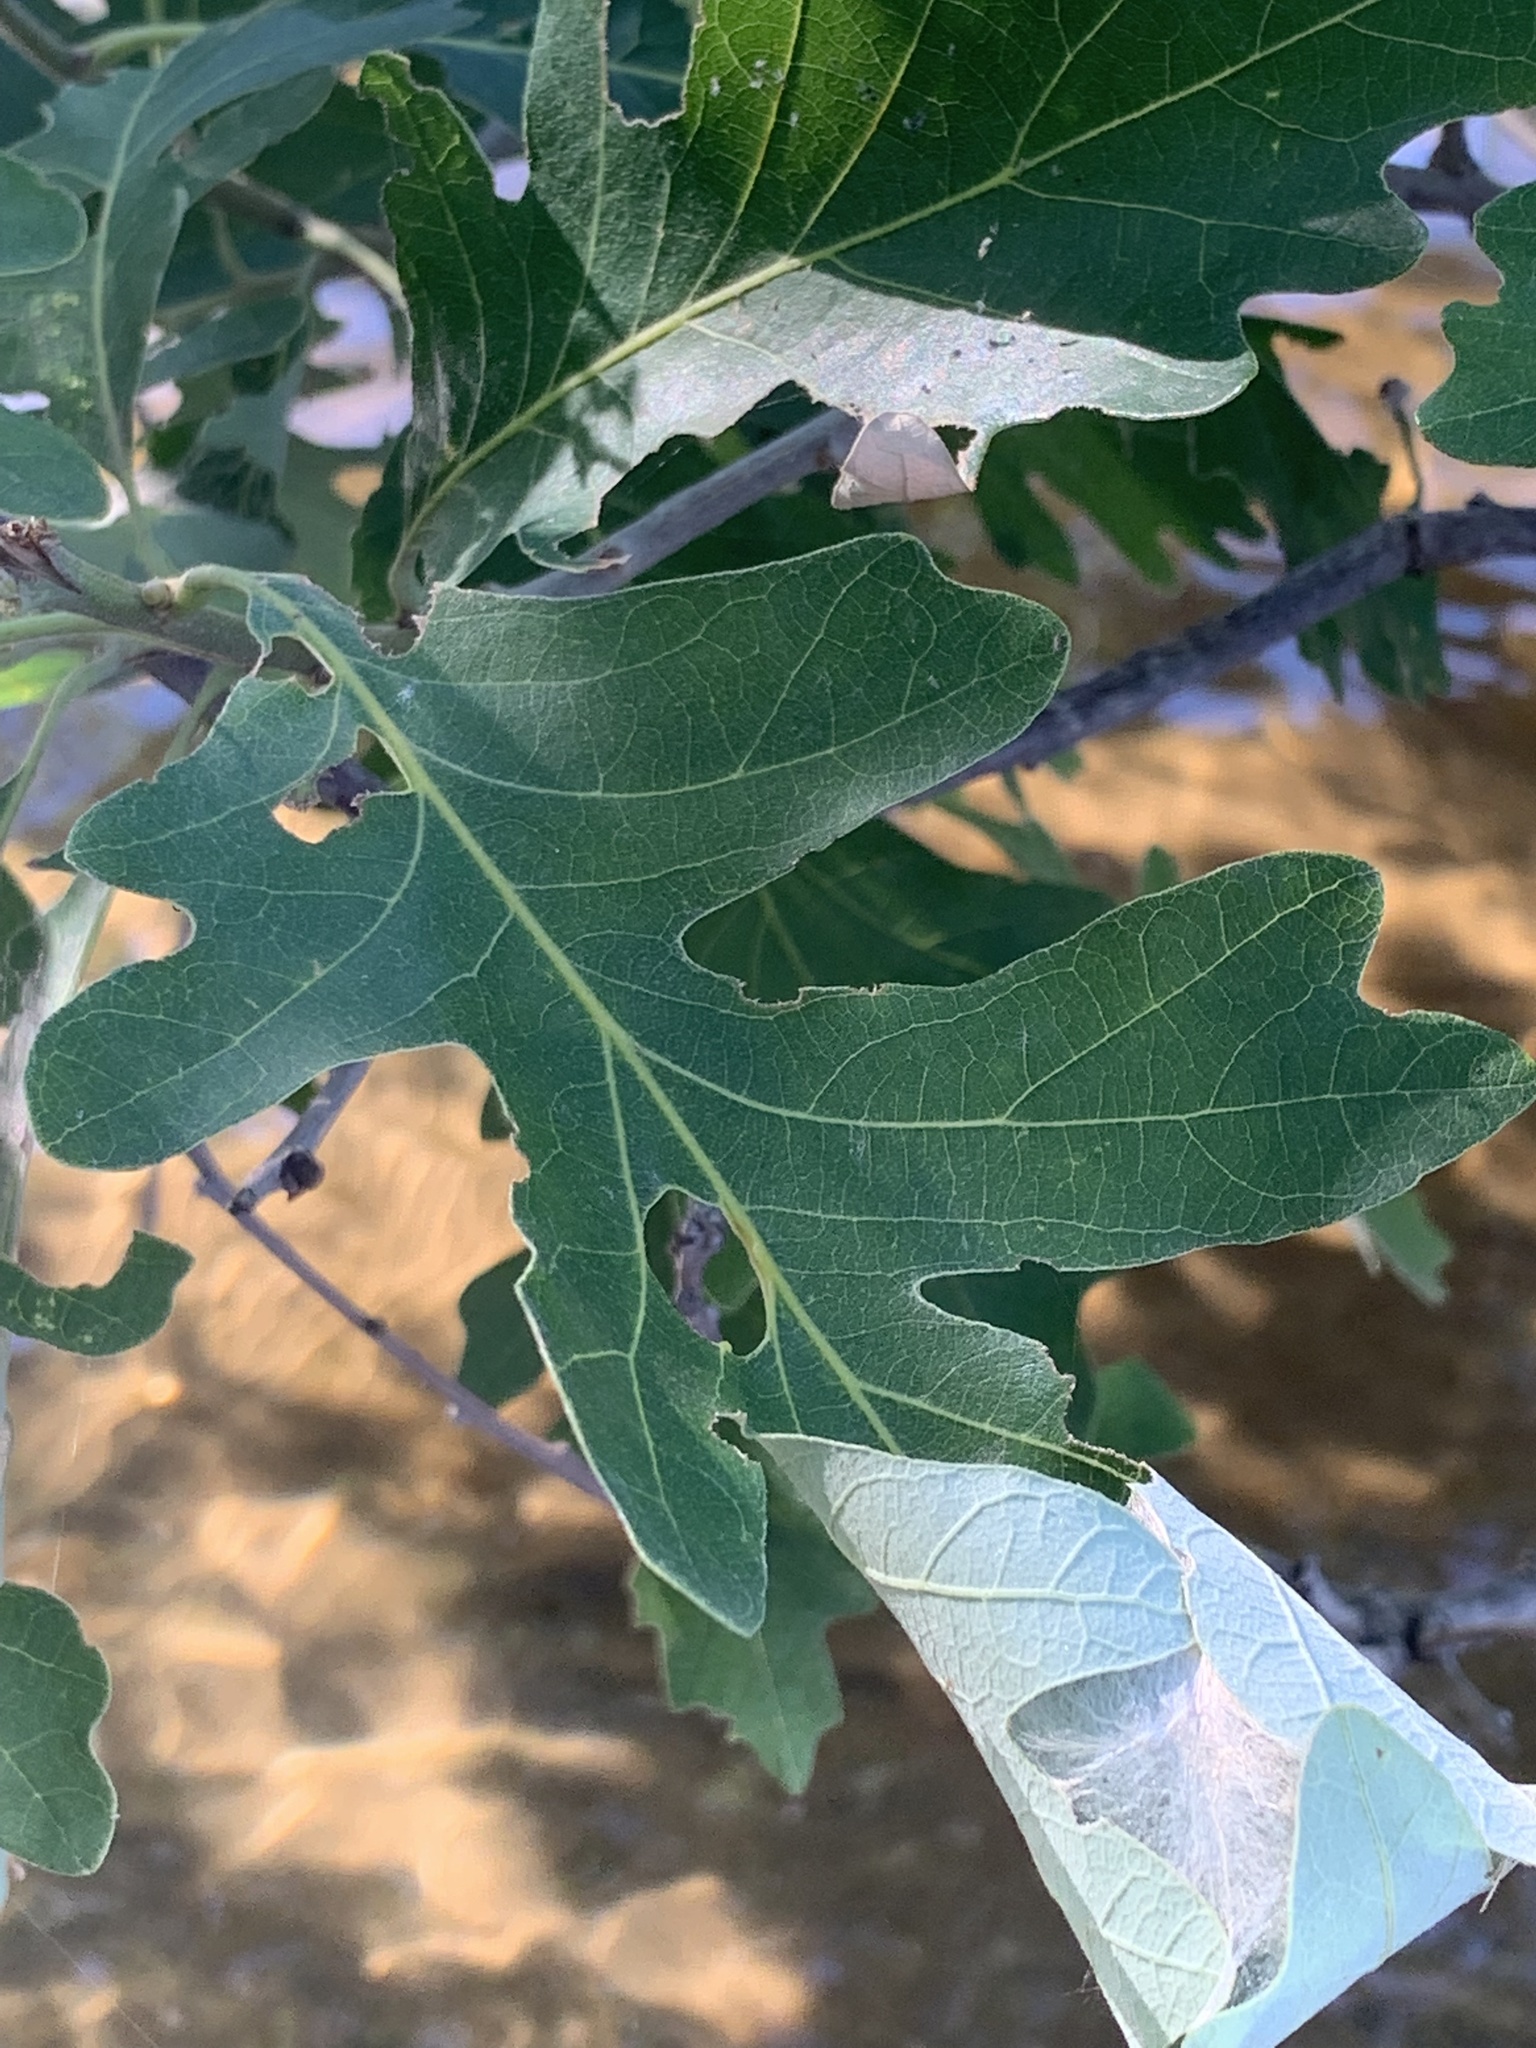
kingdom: Plantae
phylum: Tracheophyta
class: Magnoliopsida
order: Fagales
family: Fagaceae
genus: Quercus
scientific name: Quercus macrocarpa
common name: Bur oak
